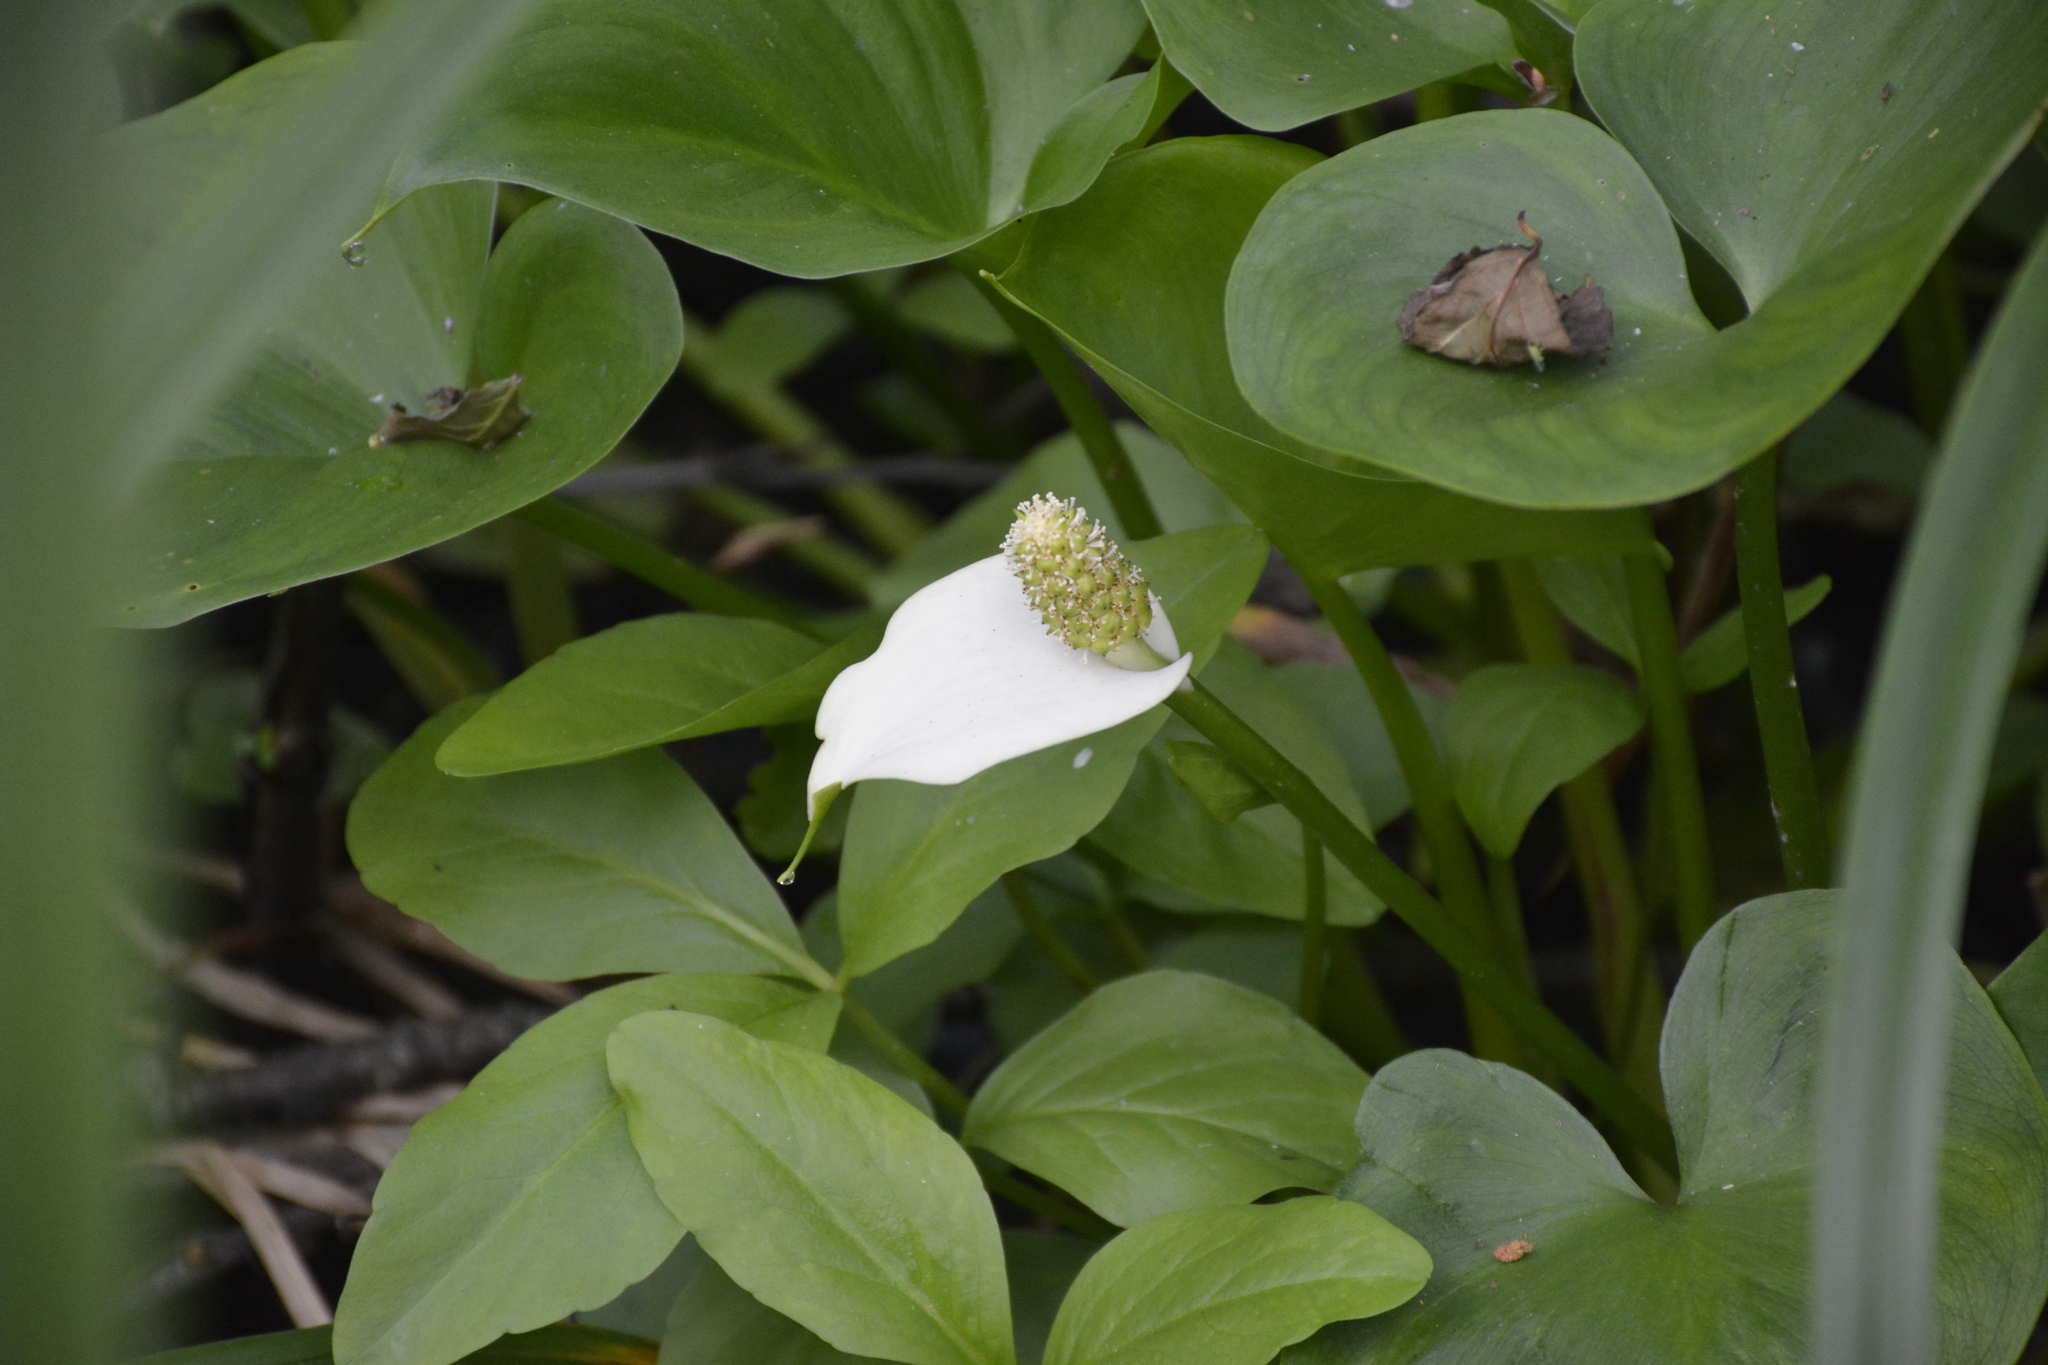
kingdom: Plantae
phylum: Tracheophyta
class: Liliopsida
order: Alismatales
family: Araceae
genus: Calla
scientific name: Calla palustris
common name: Bog arum
